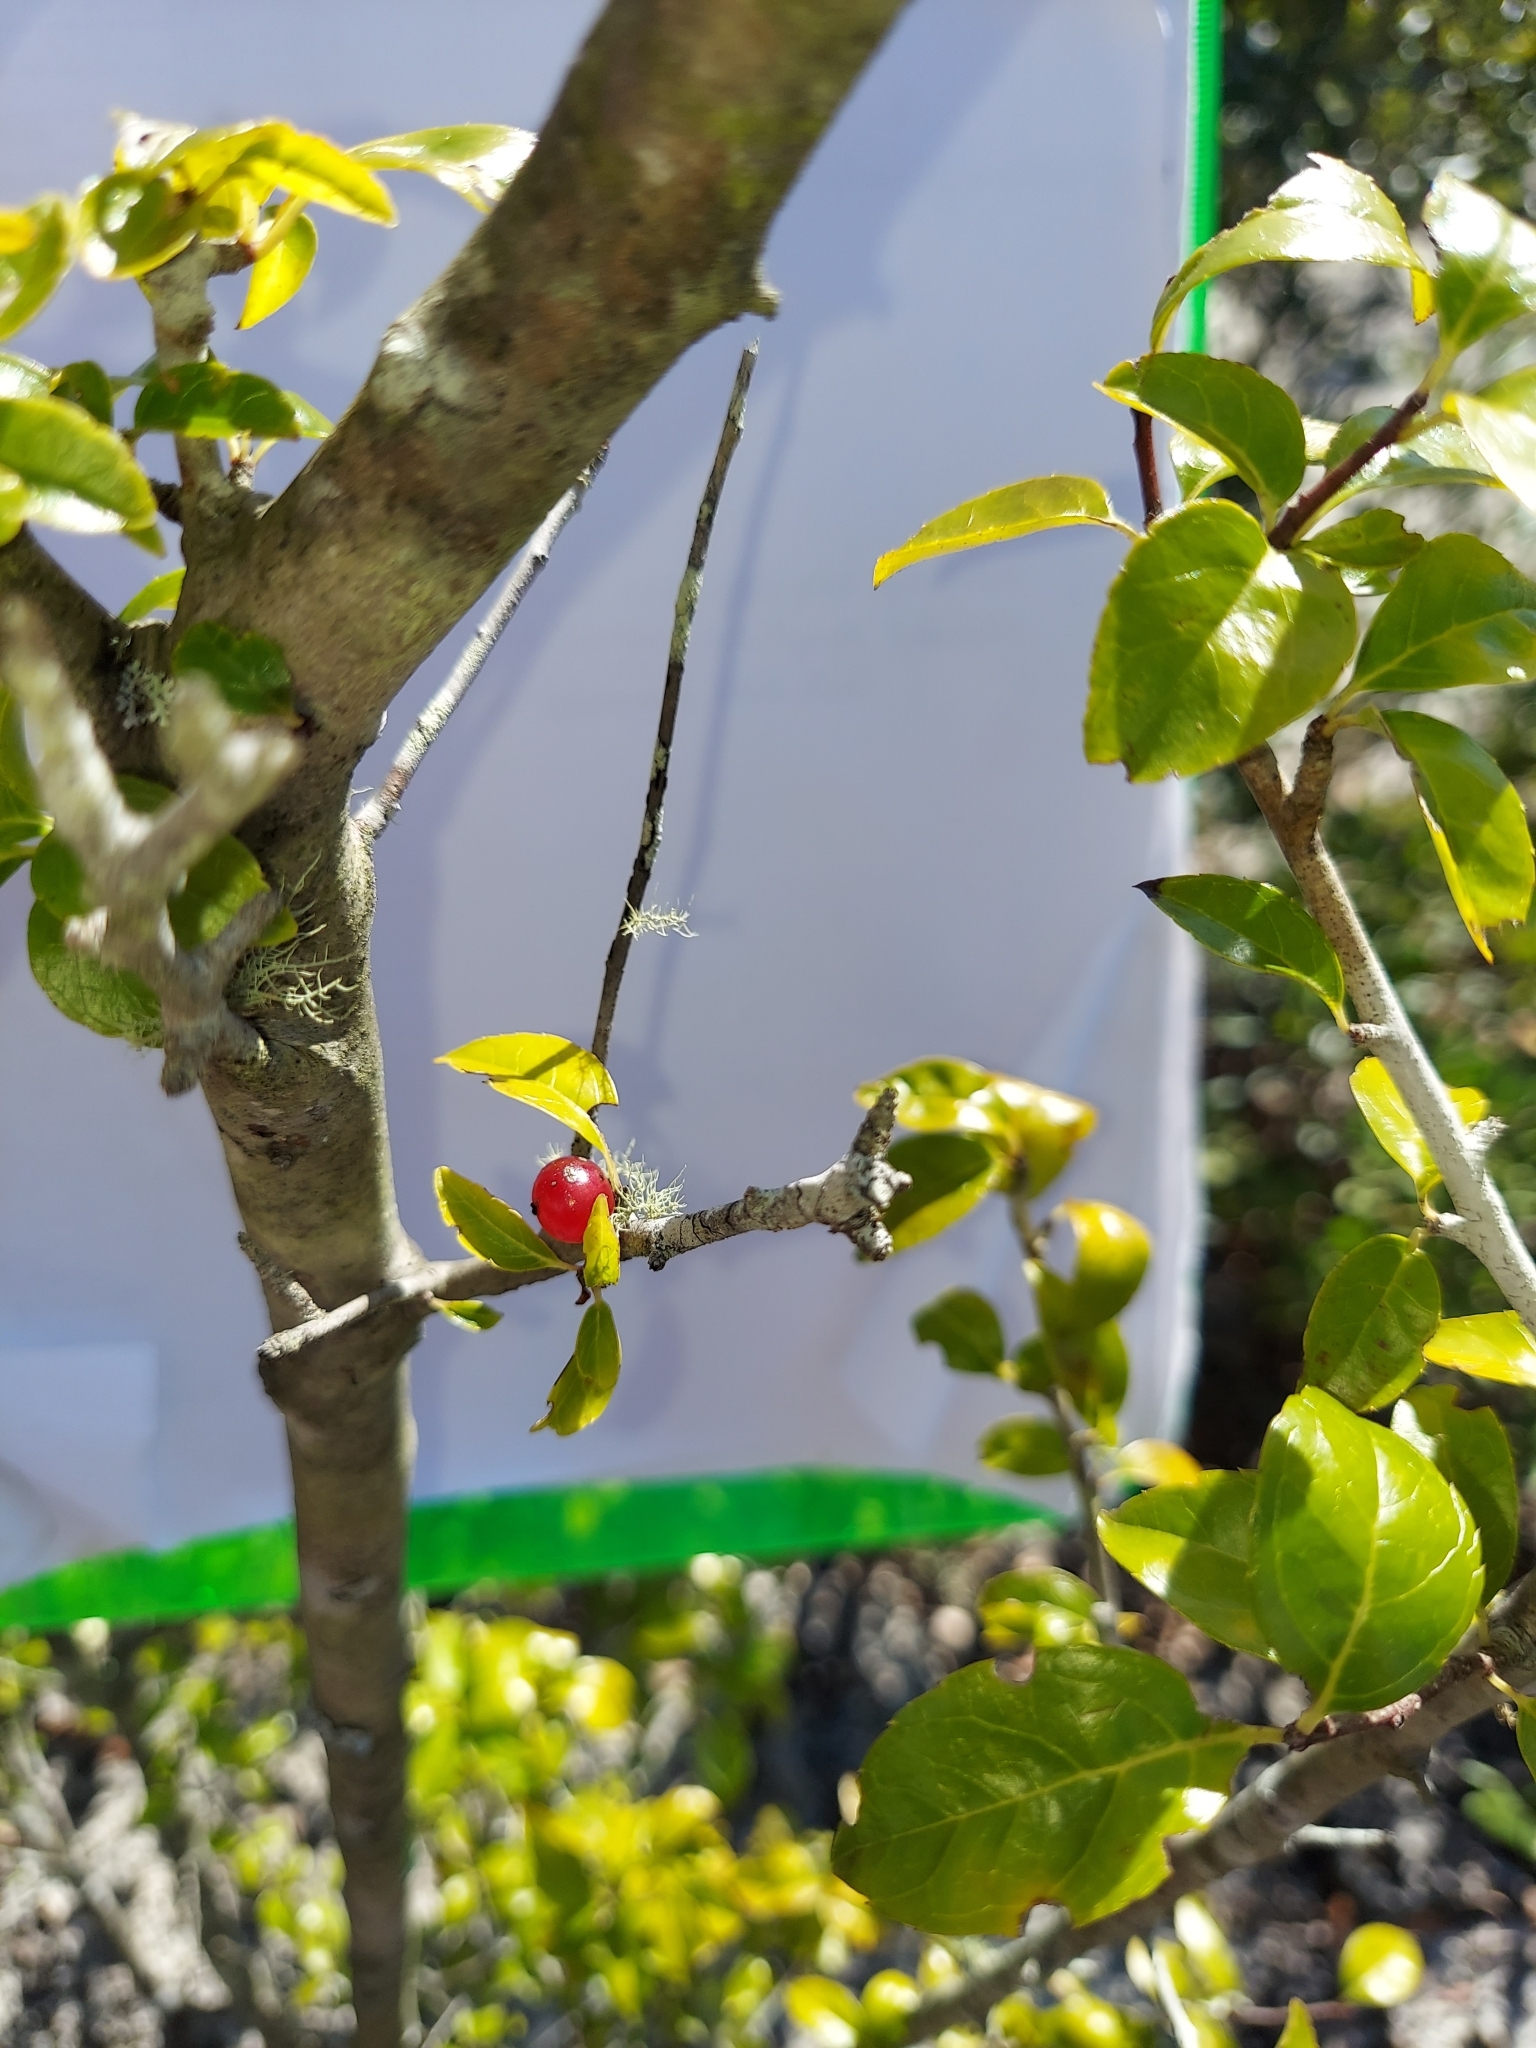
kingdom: Plantae
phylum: Tracheophyta
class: Magnoliopsida
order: Aquifoliales
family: Aquifoliaceae
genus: Ilex
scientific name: Ilex ambigua
